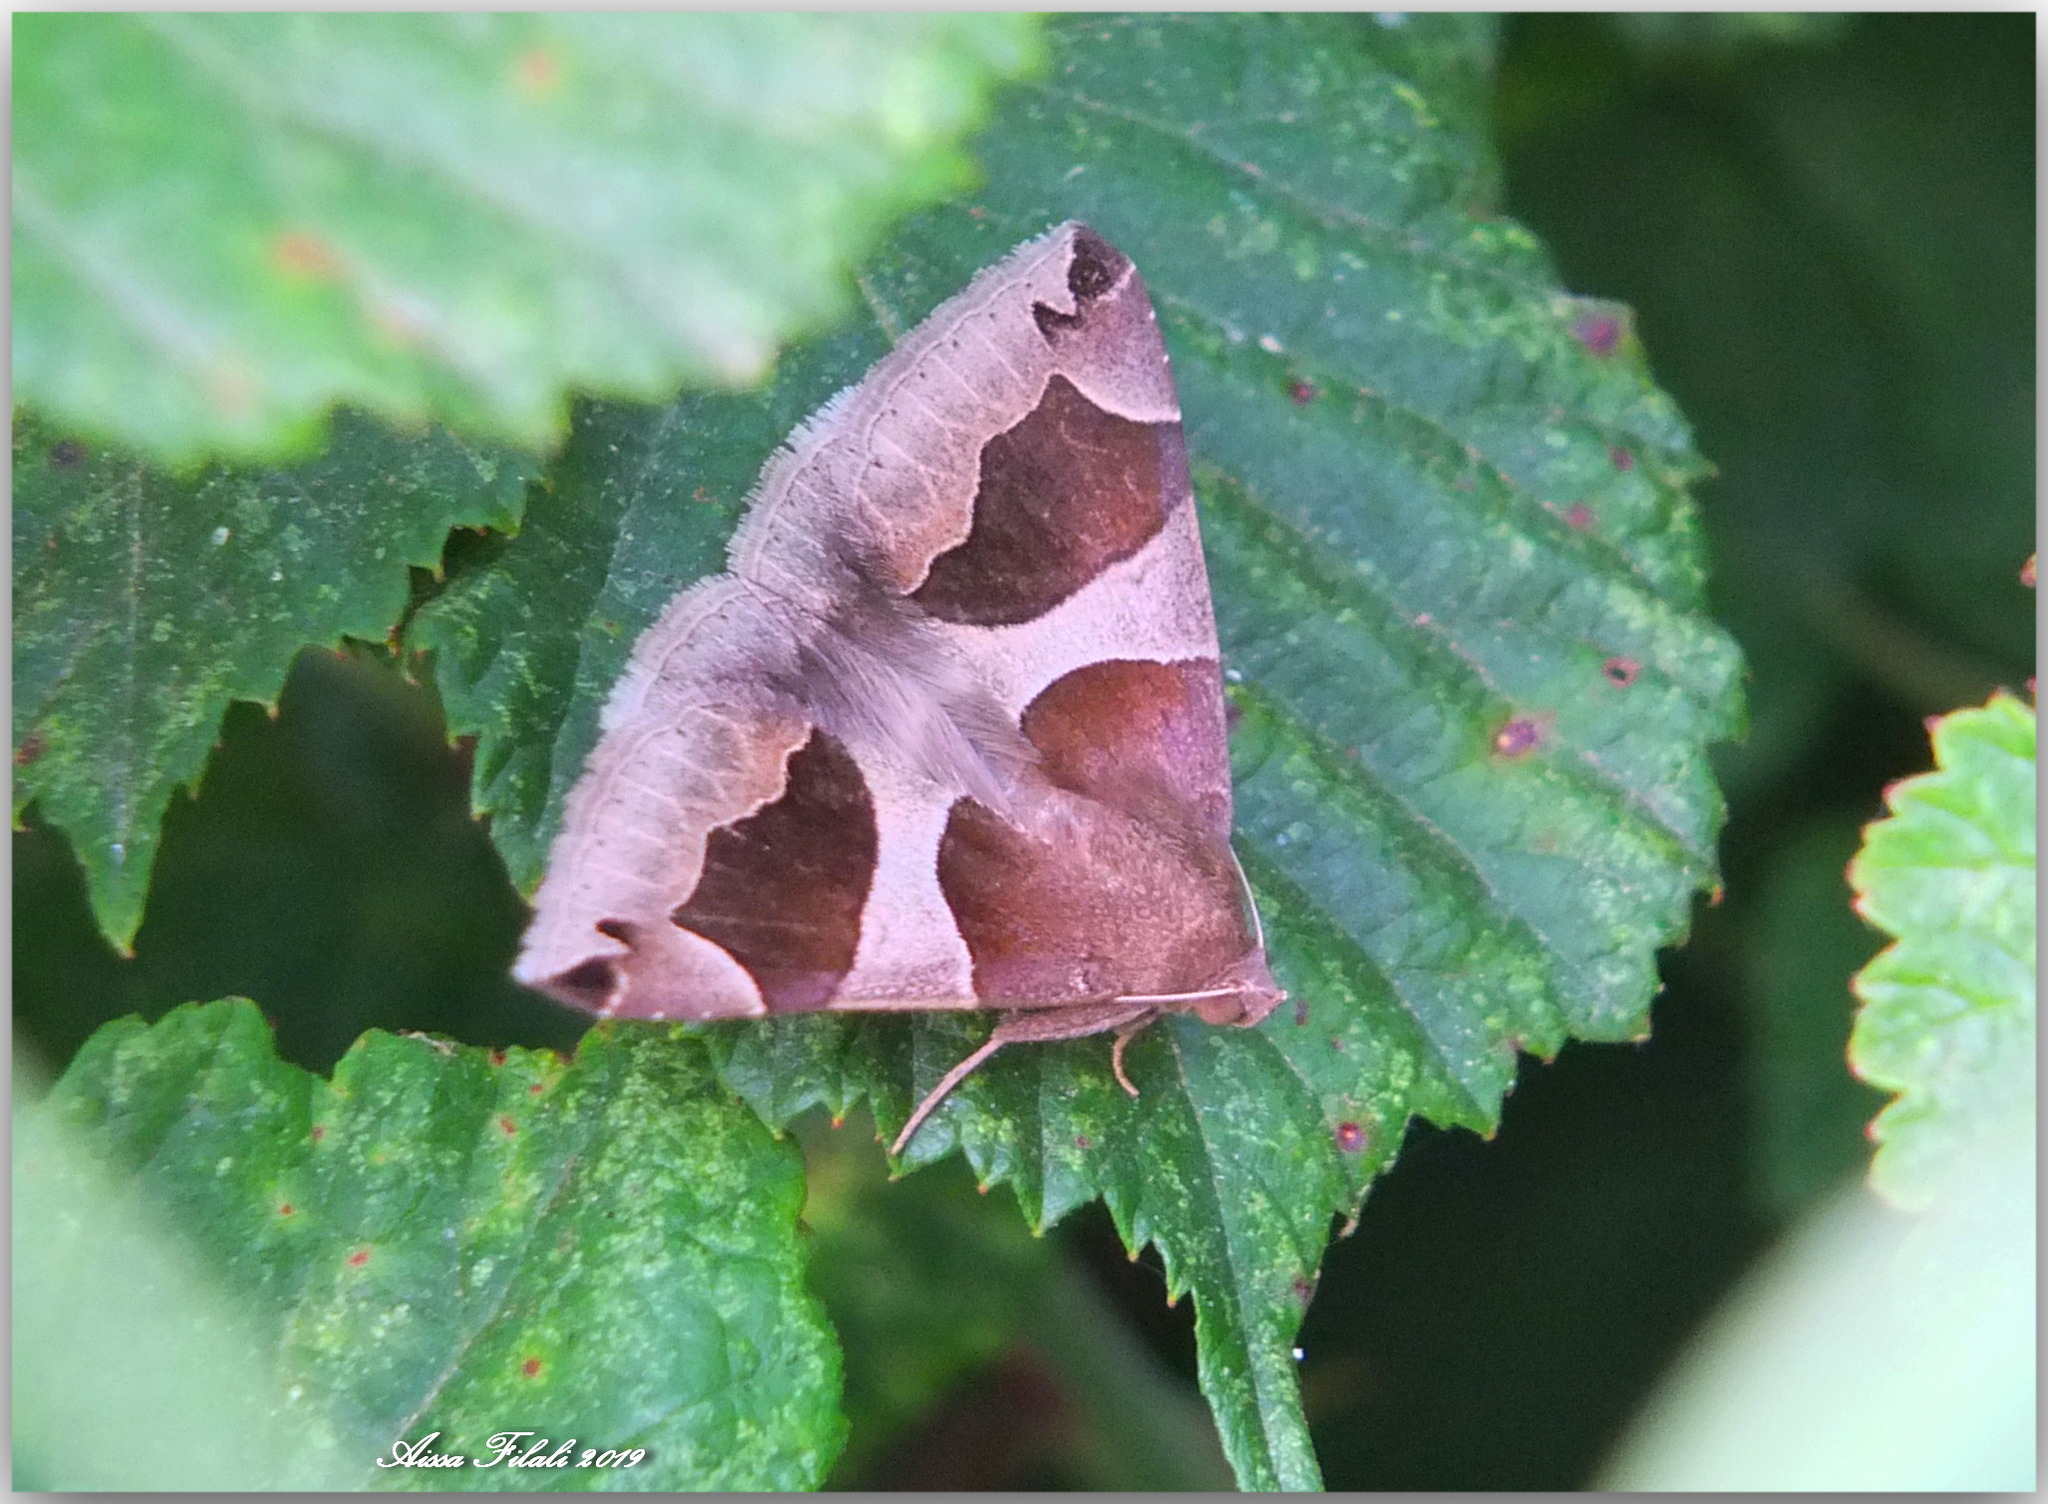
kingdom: Animalia
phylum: Arthropoda
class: Insecta
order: Lepidoptera
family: Erebidae
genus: Dysgonia
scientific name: Dysgonia algira
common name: Passenger
